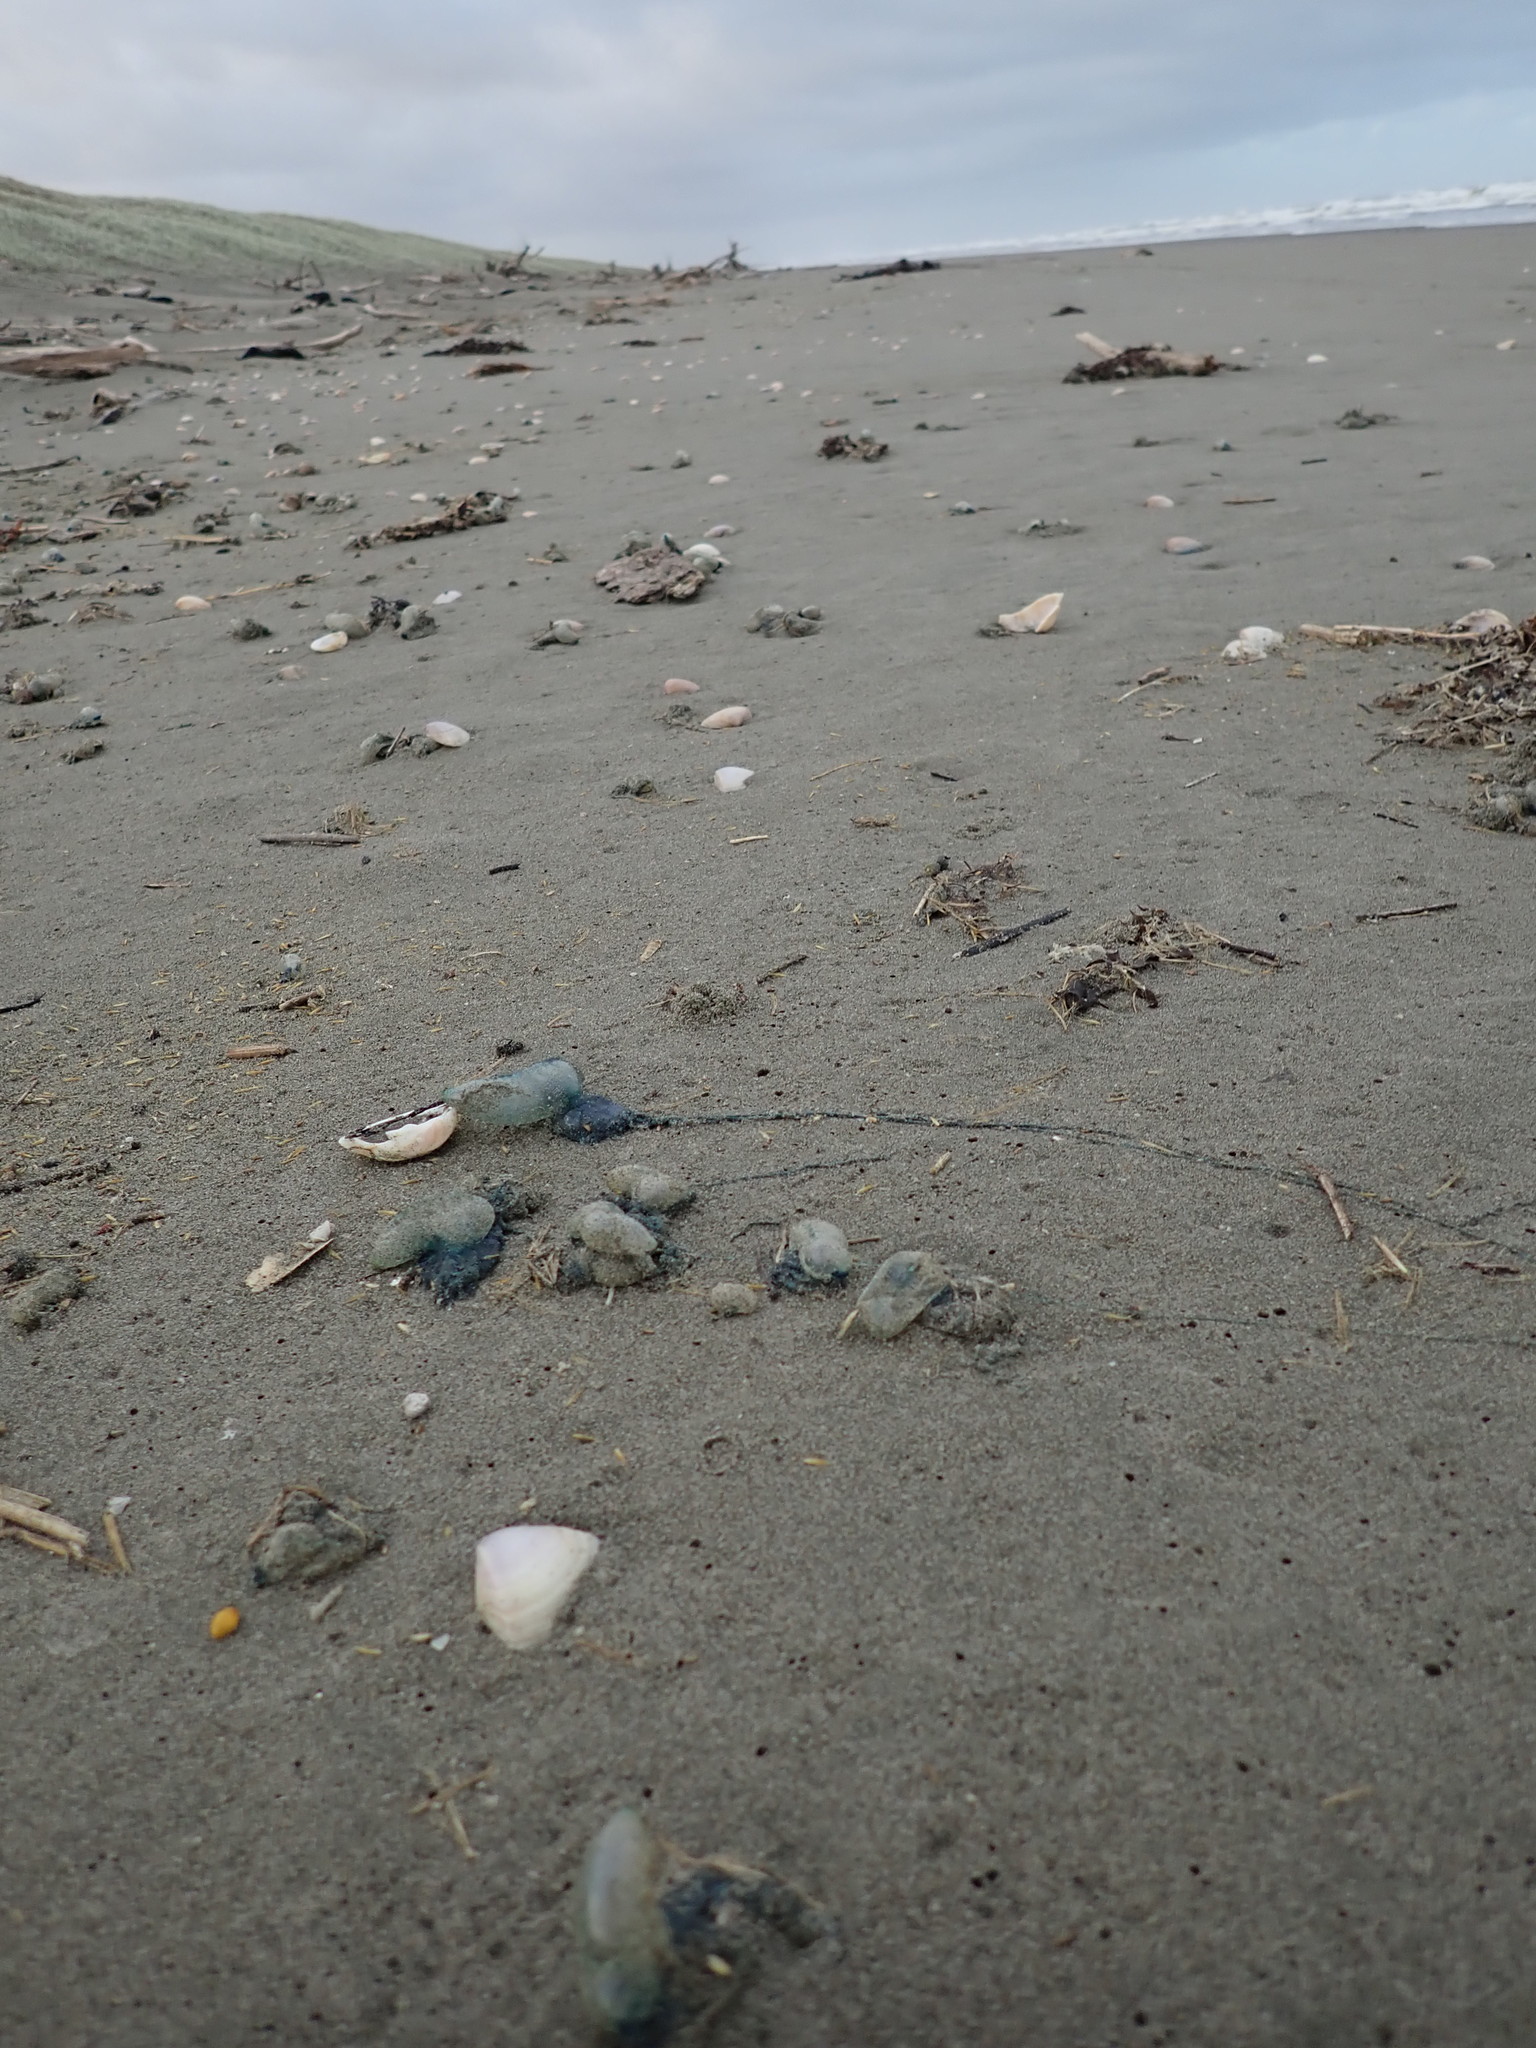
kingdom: Animalia
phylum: Cnidaria
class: Hydrozoa
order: Siphonophorae
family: Physaliidae
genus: Physalia
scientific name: Physalia physalis
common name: Portuguese man-of-war
